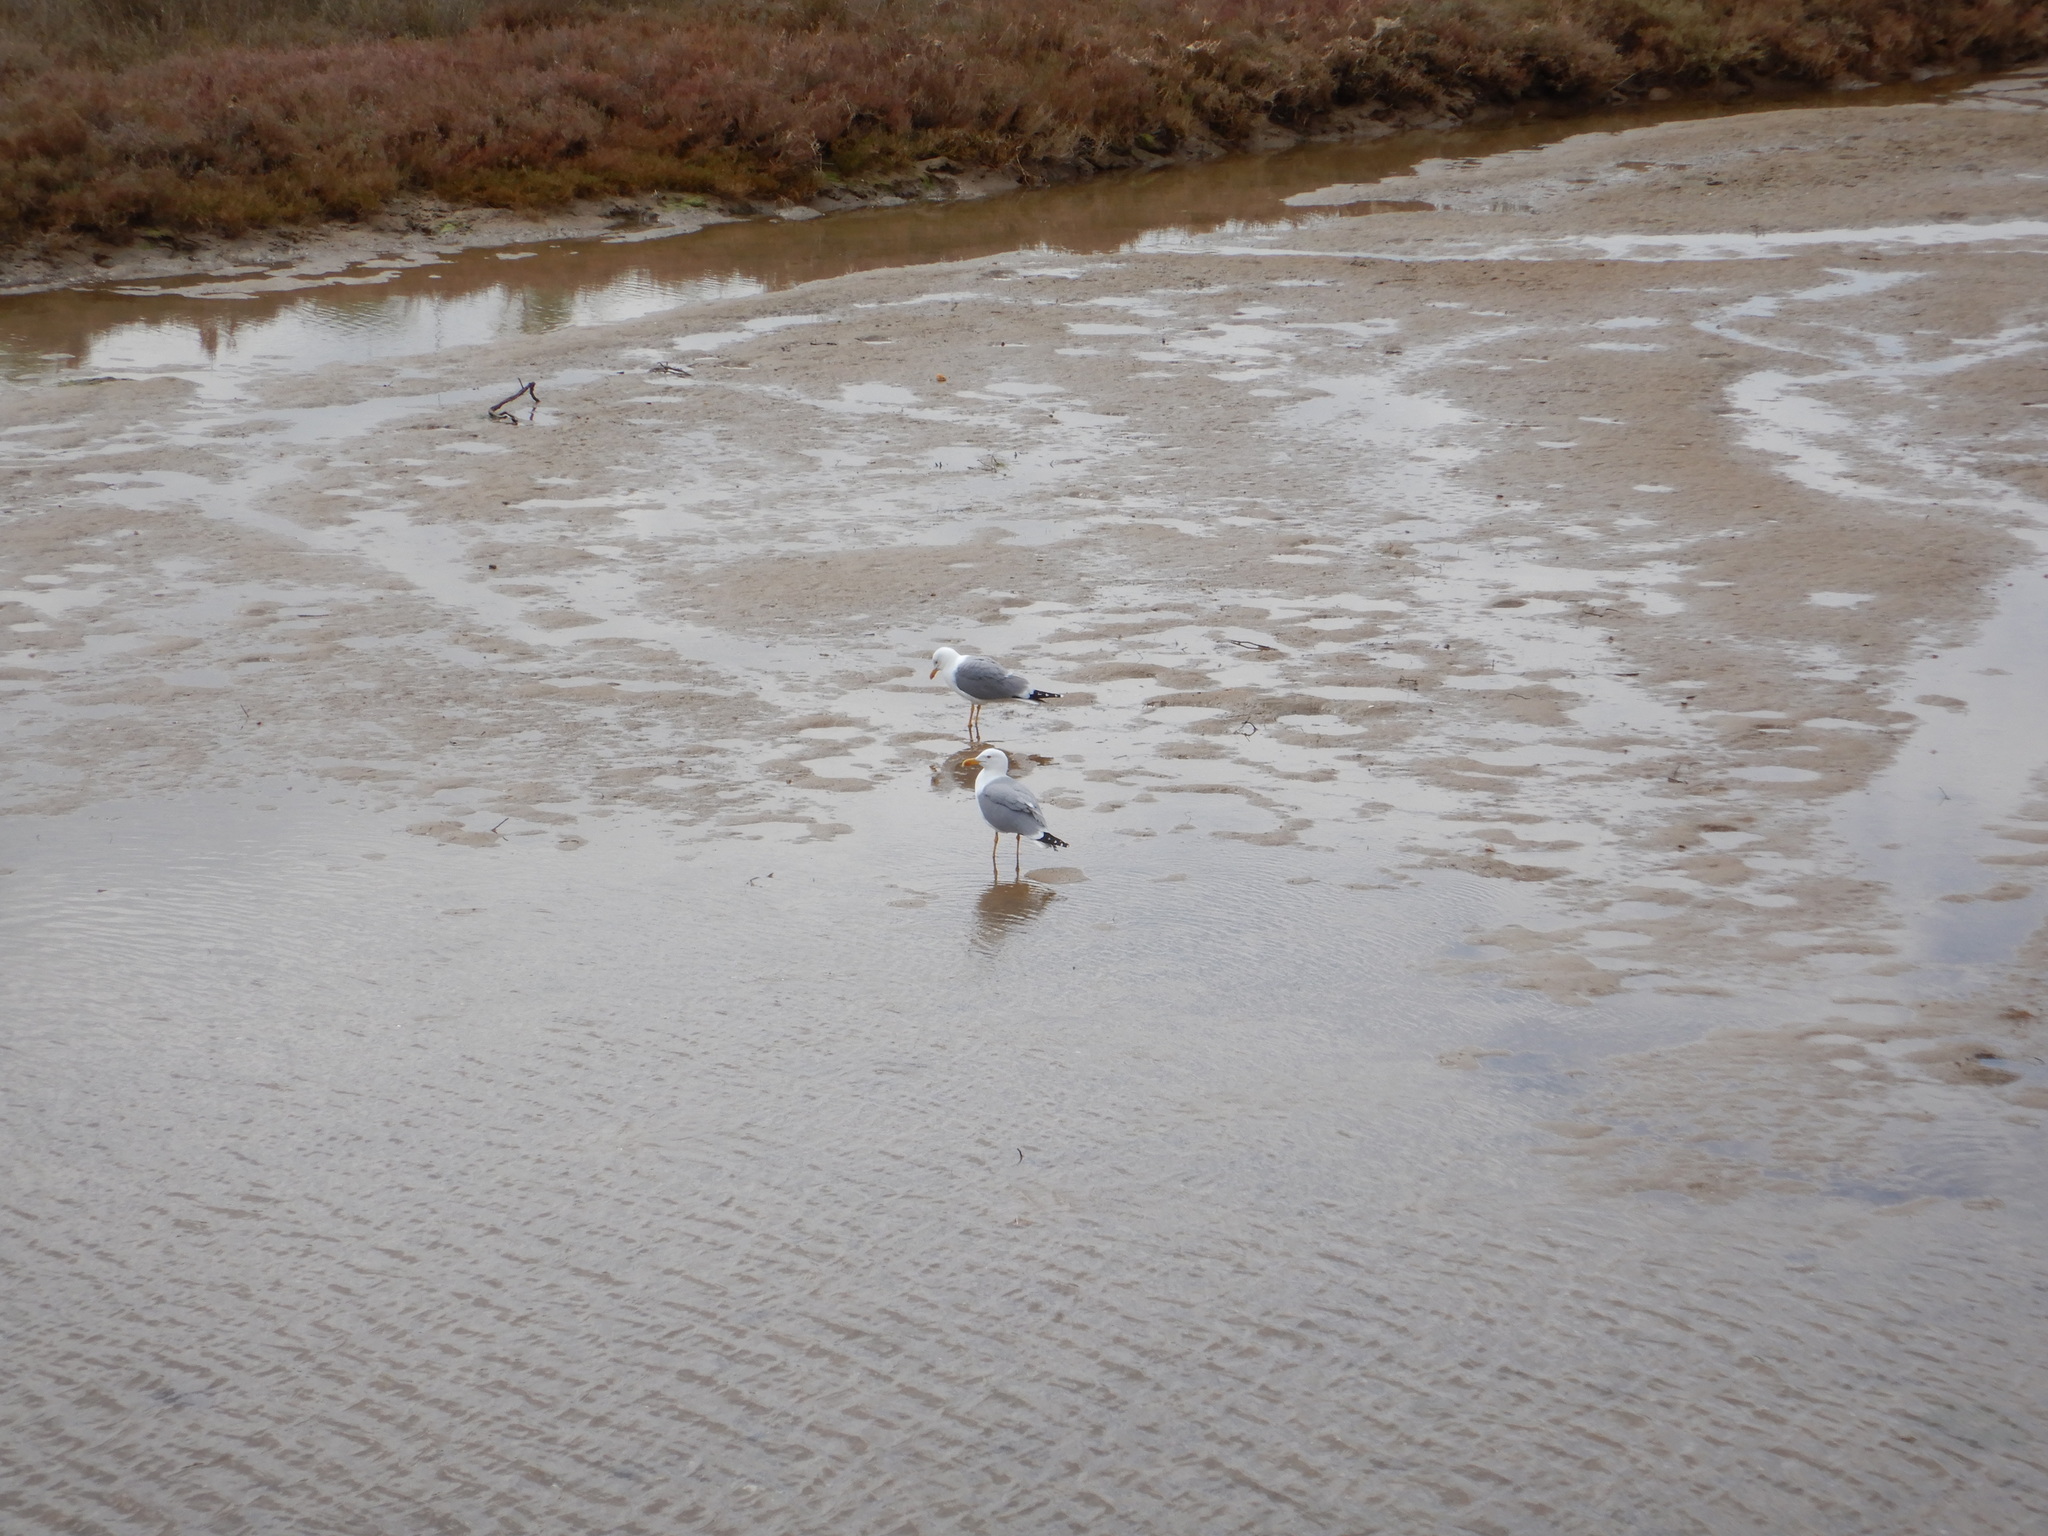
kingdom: Animalia
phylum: Chordata
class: Aves
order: Charadriiformes
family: Laridae
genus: Larus
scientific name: Larus michahellis
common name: Yellow-legged gull
